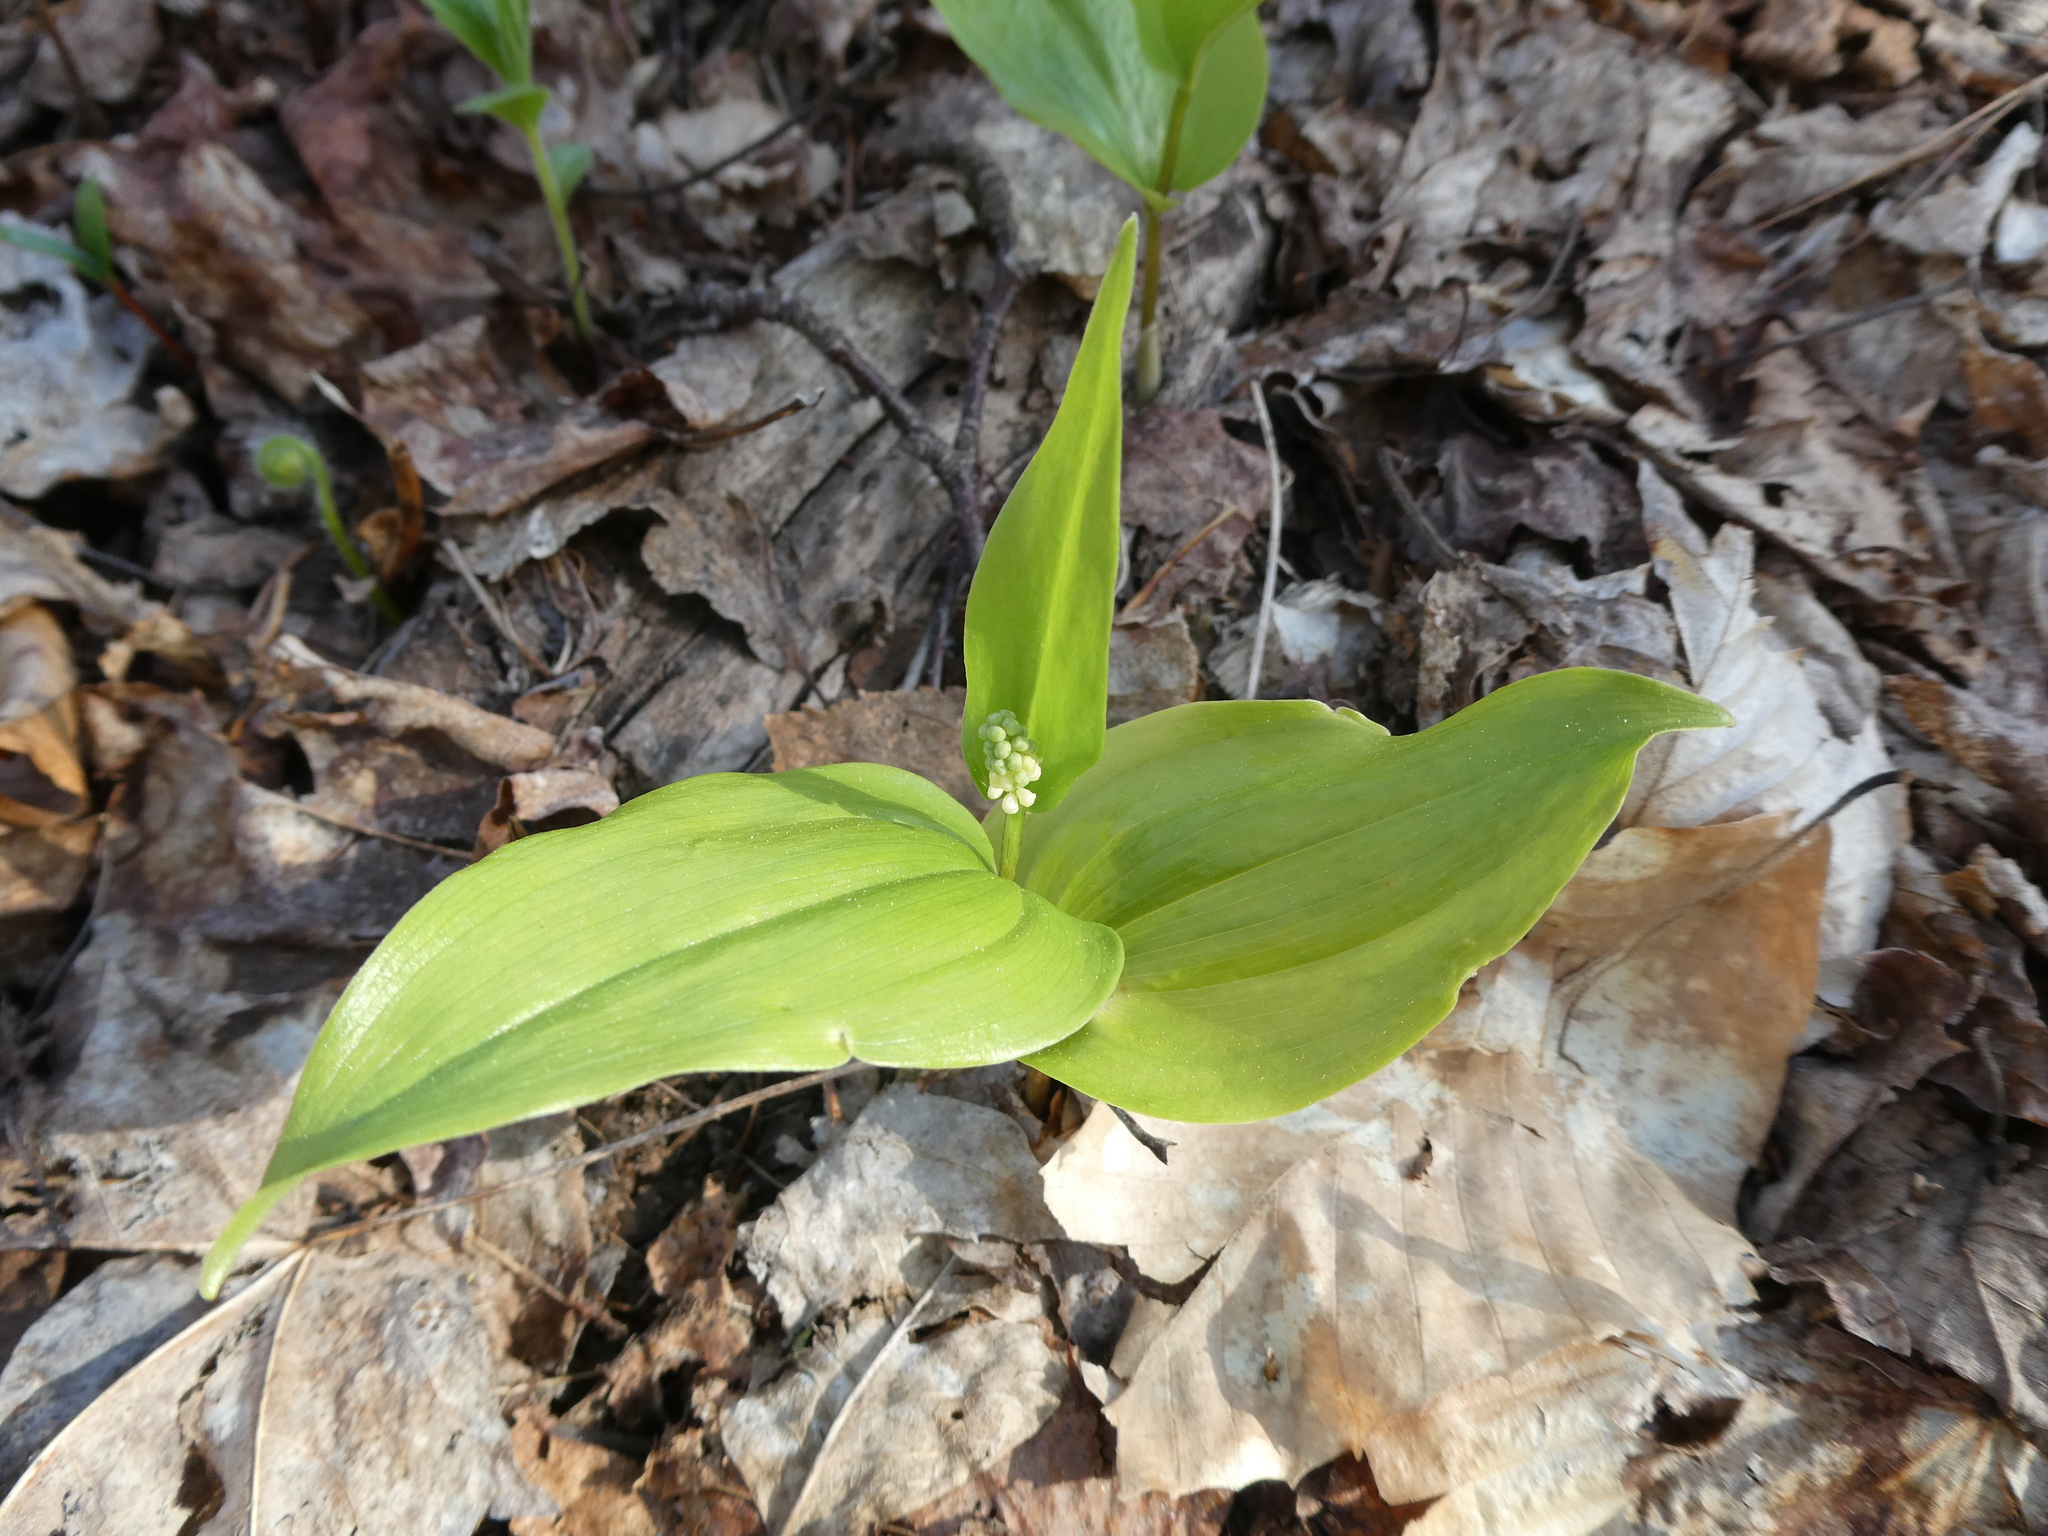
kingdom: Plantae
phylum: Tracheophyta
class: Liliopsida
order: Asparagales
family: Asparagaceae
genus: Maianthemum
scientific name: Maianthemum canadense
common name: False lily-of-the-valley
